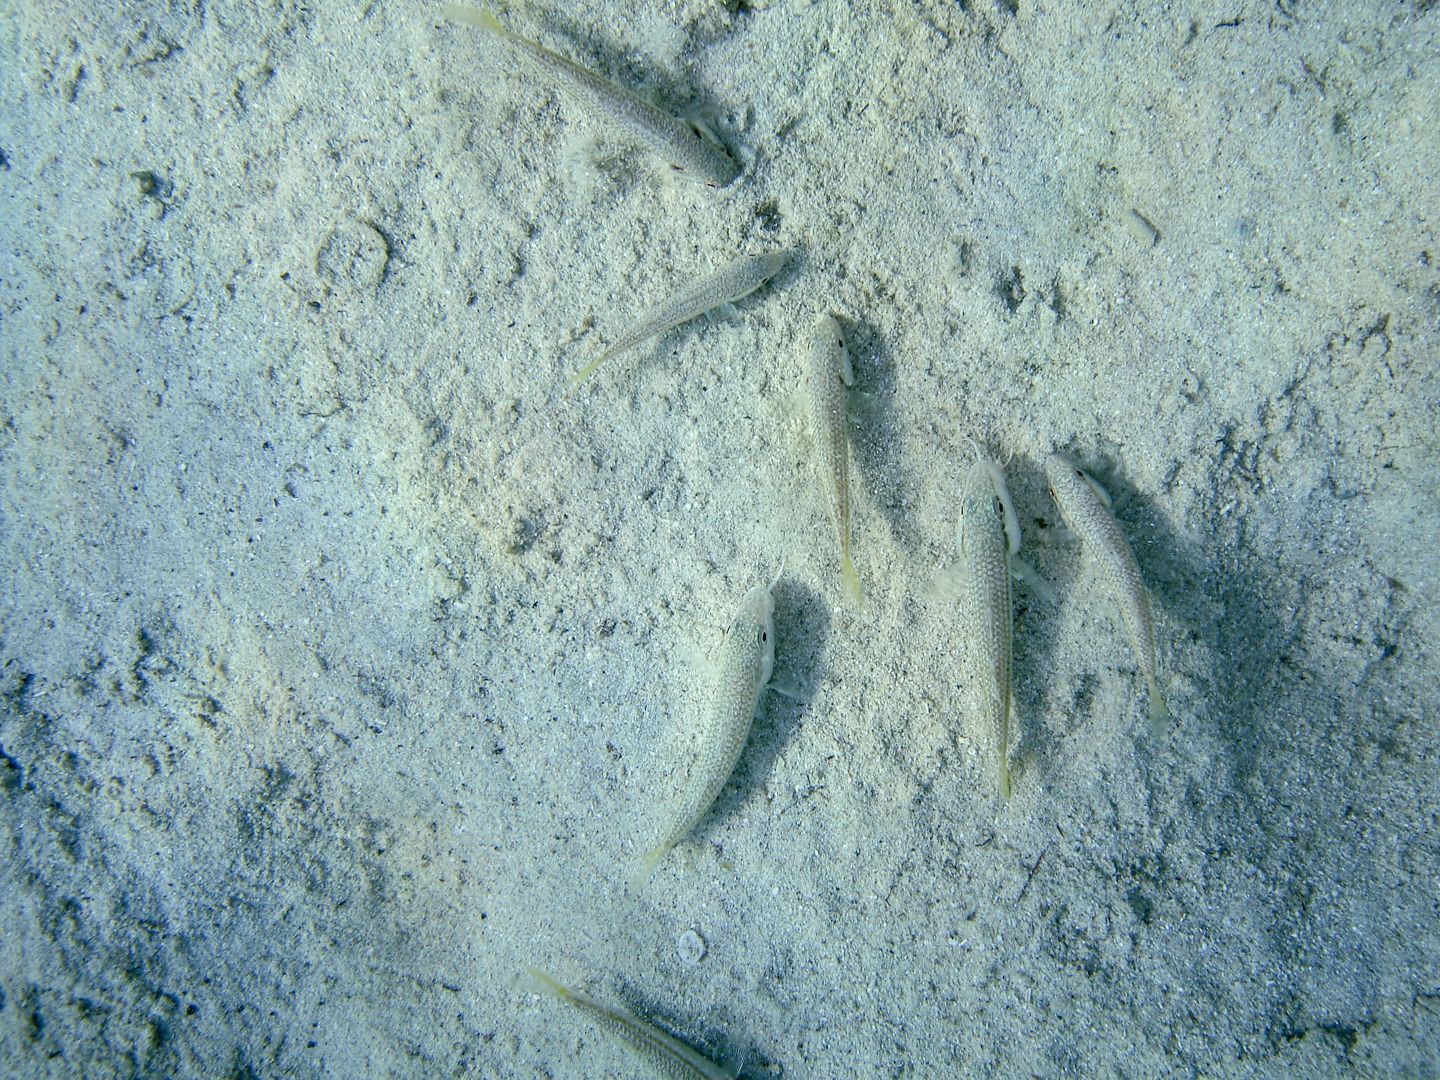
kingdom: Animalia
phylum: Chordata
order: Perciformes
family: Mullidae
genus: Mullus
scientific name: Mullus barbatus
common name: Blunt-snouted mullet
